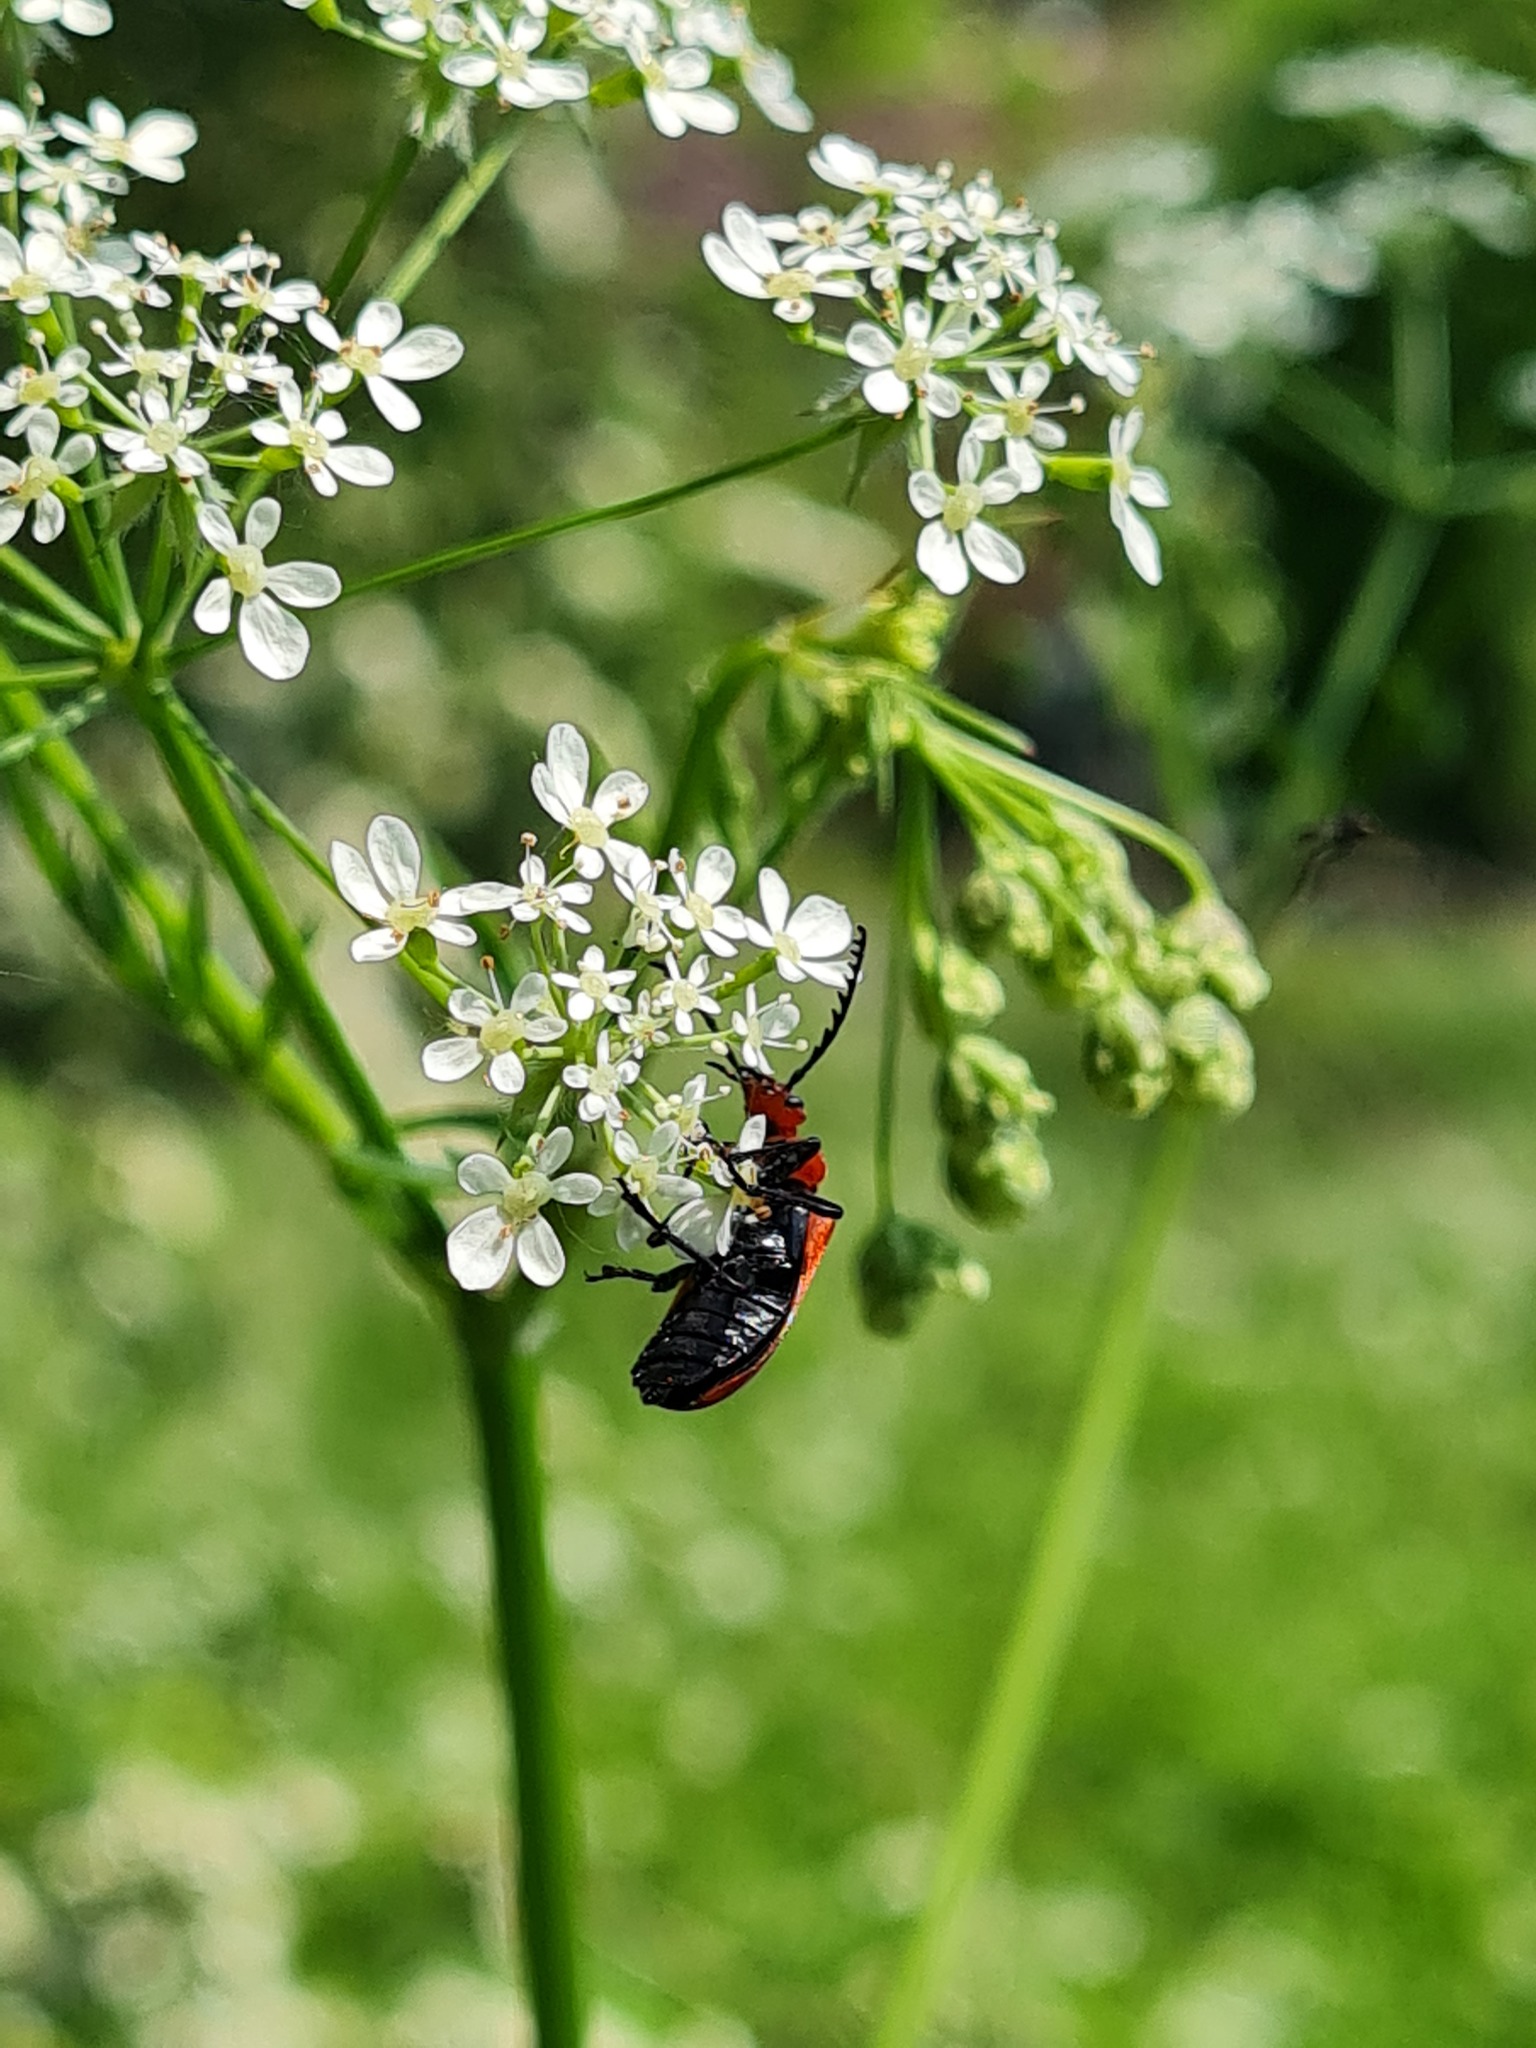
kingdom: Animalia
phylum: Arthropoda
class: Insecta
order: Coleoptera
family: Pyrochroidae
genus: Pyrochroa
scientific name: Pyrochroa serraticornis
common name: Red-headed cardinal beetle
